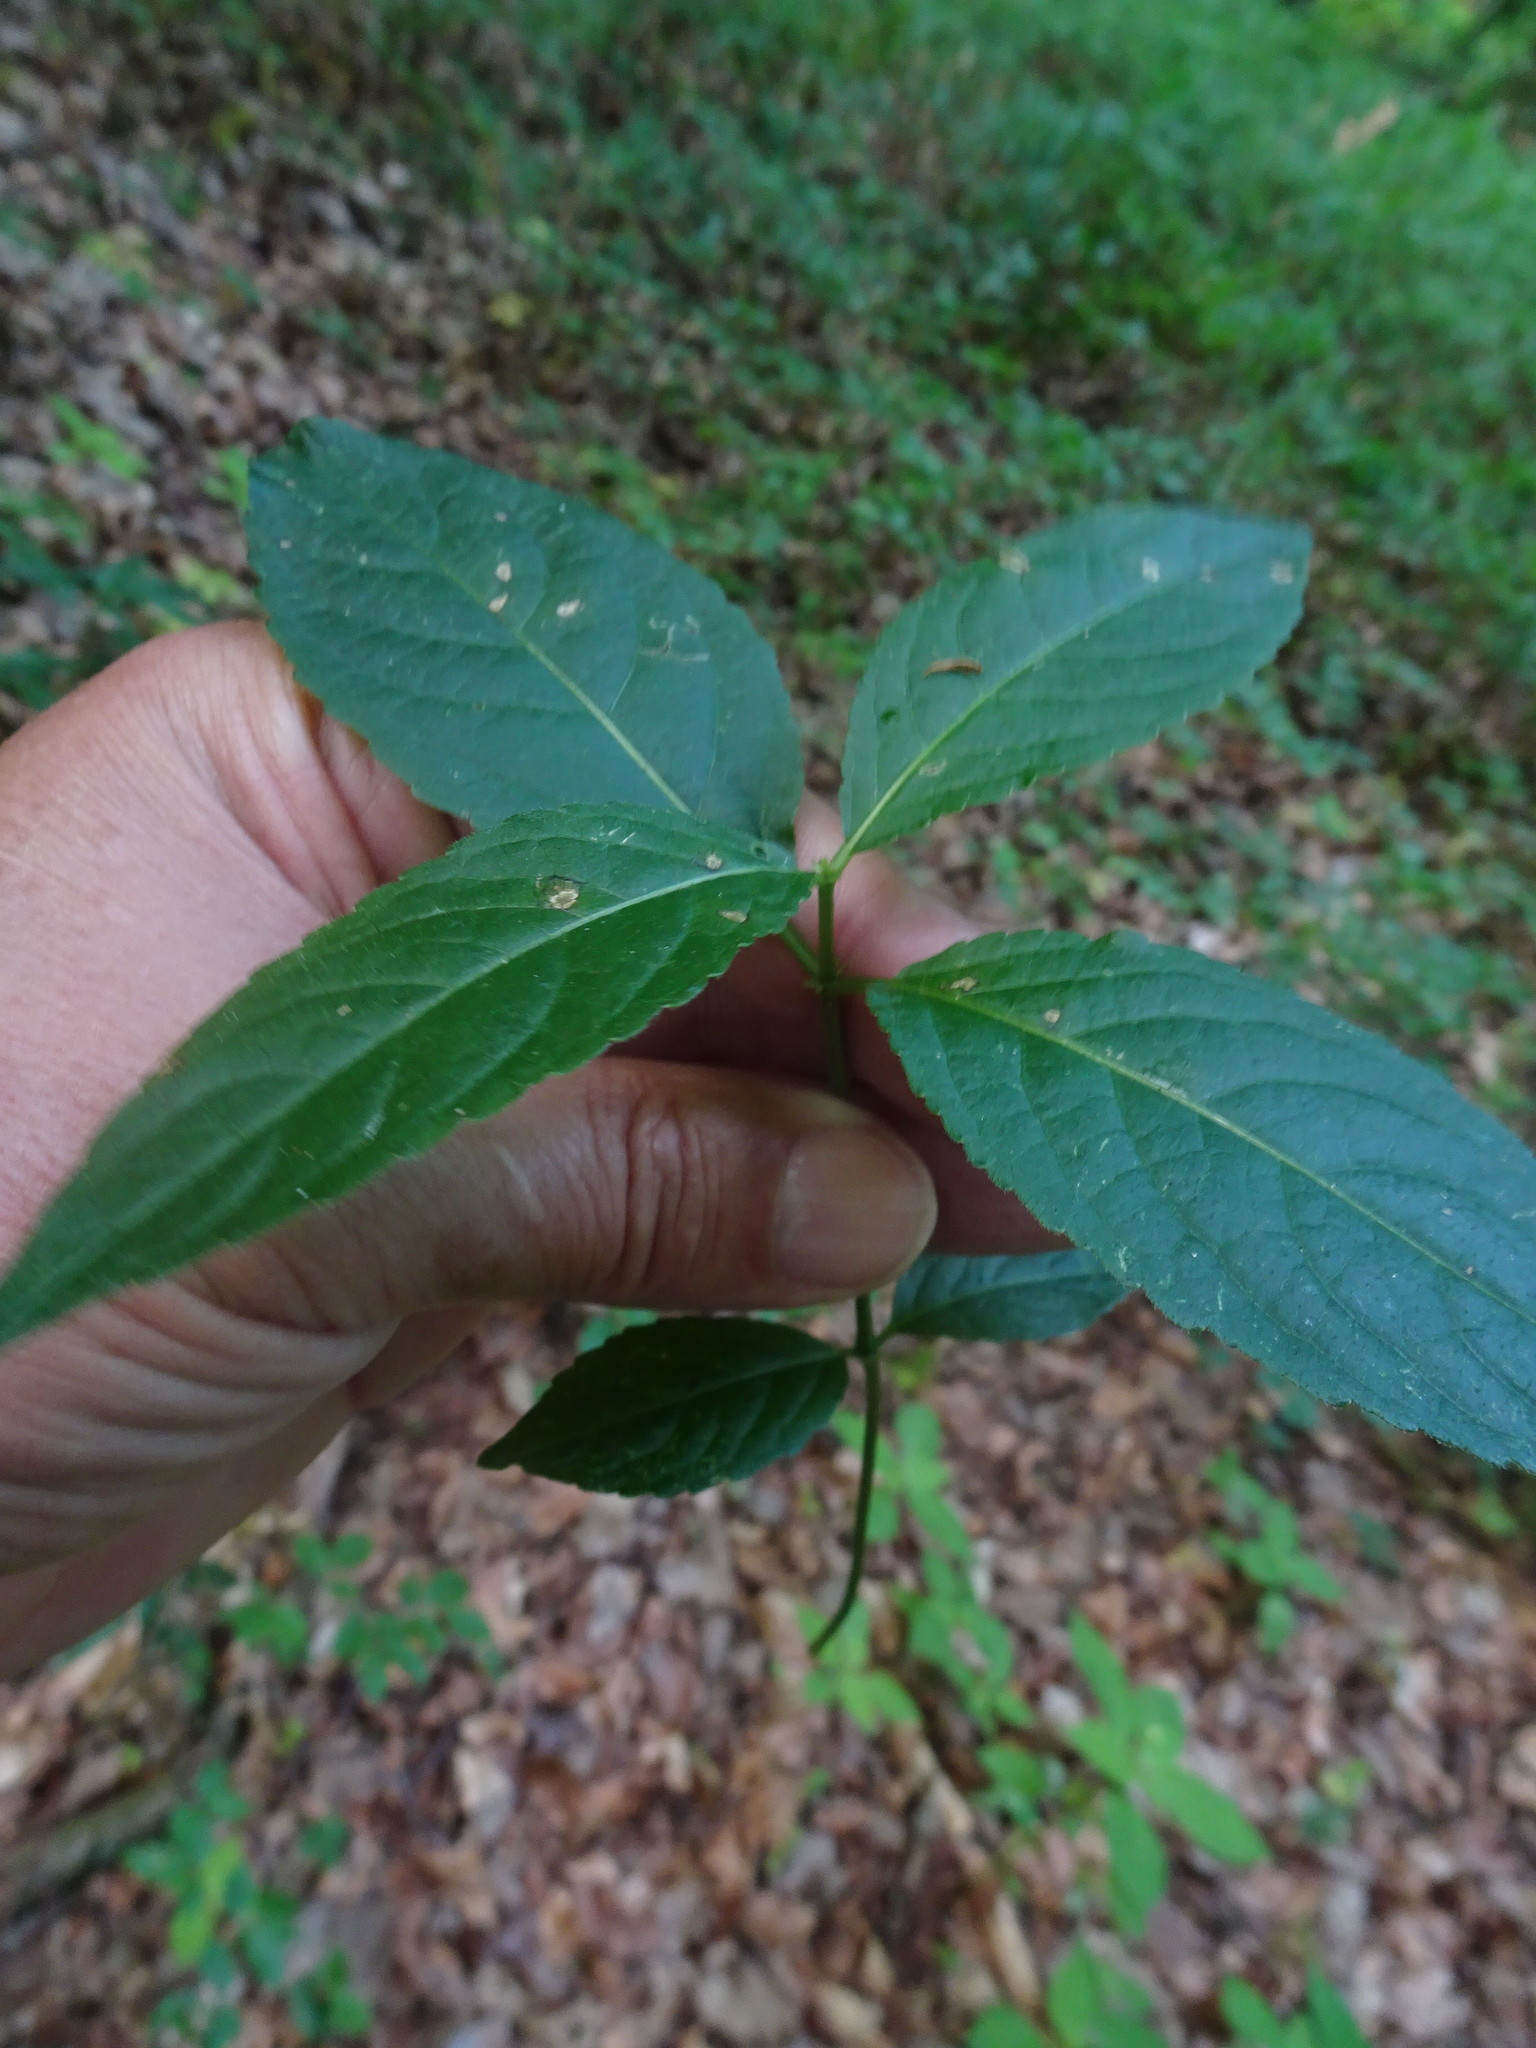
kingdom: Plantae
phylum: Tracheophyta
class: Magnoliopsida
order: Malpighiales
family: Euphorbiaceae
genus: Mercurialis
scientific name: Mercurialis perennis
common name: Dog mercury
